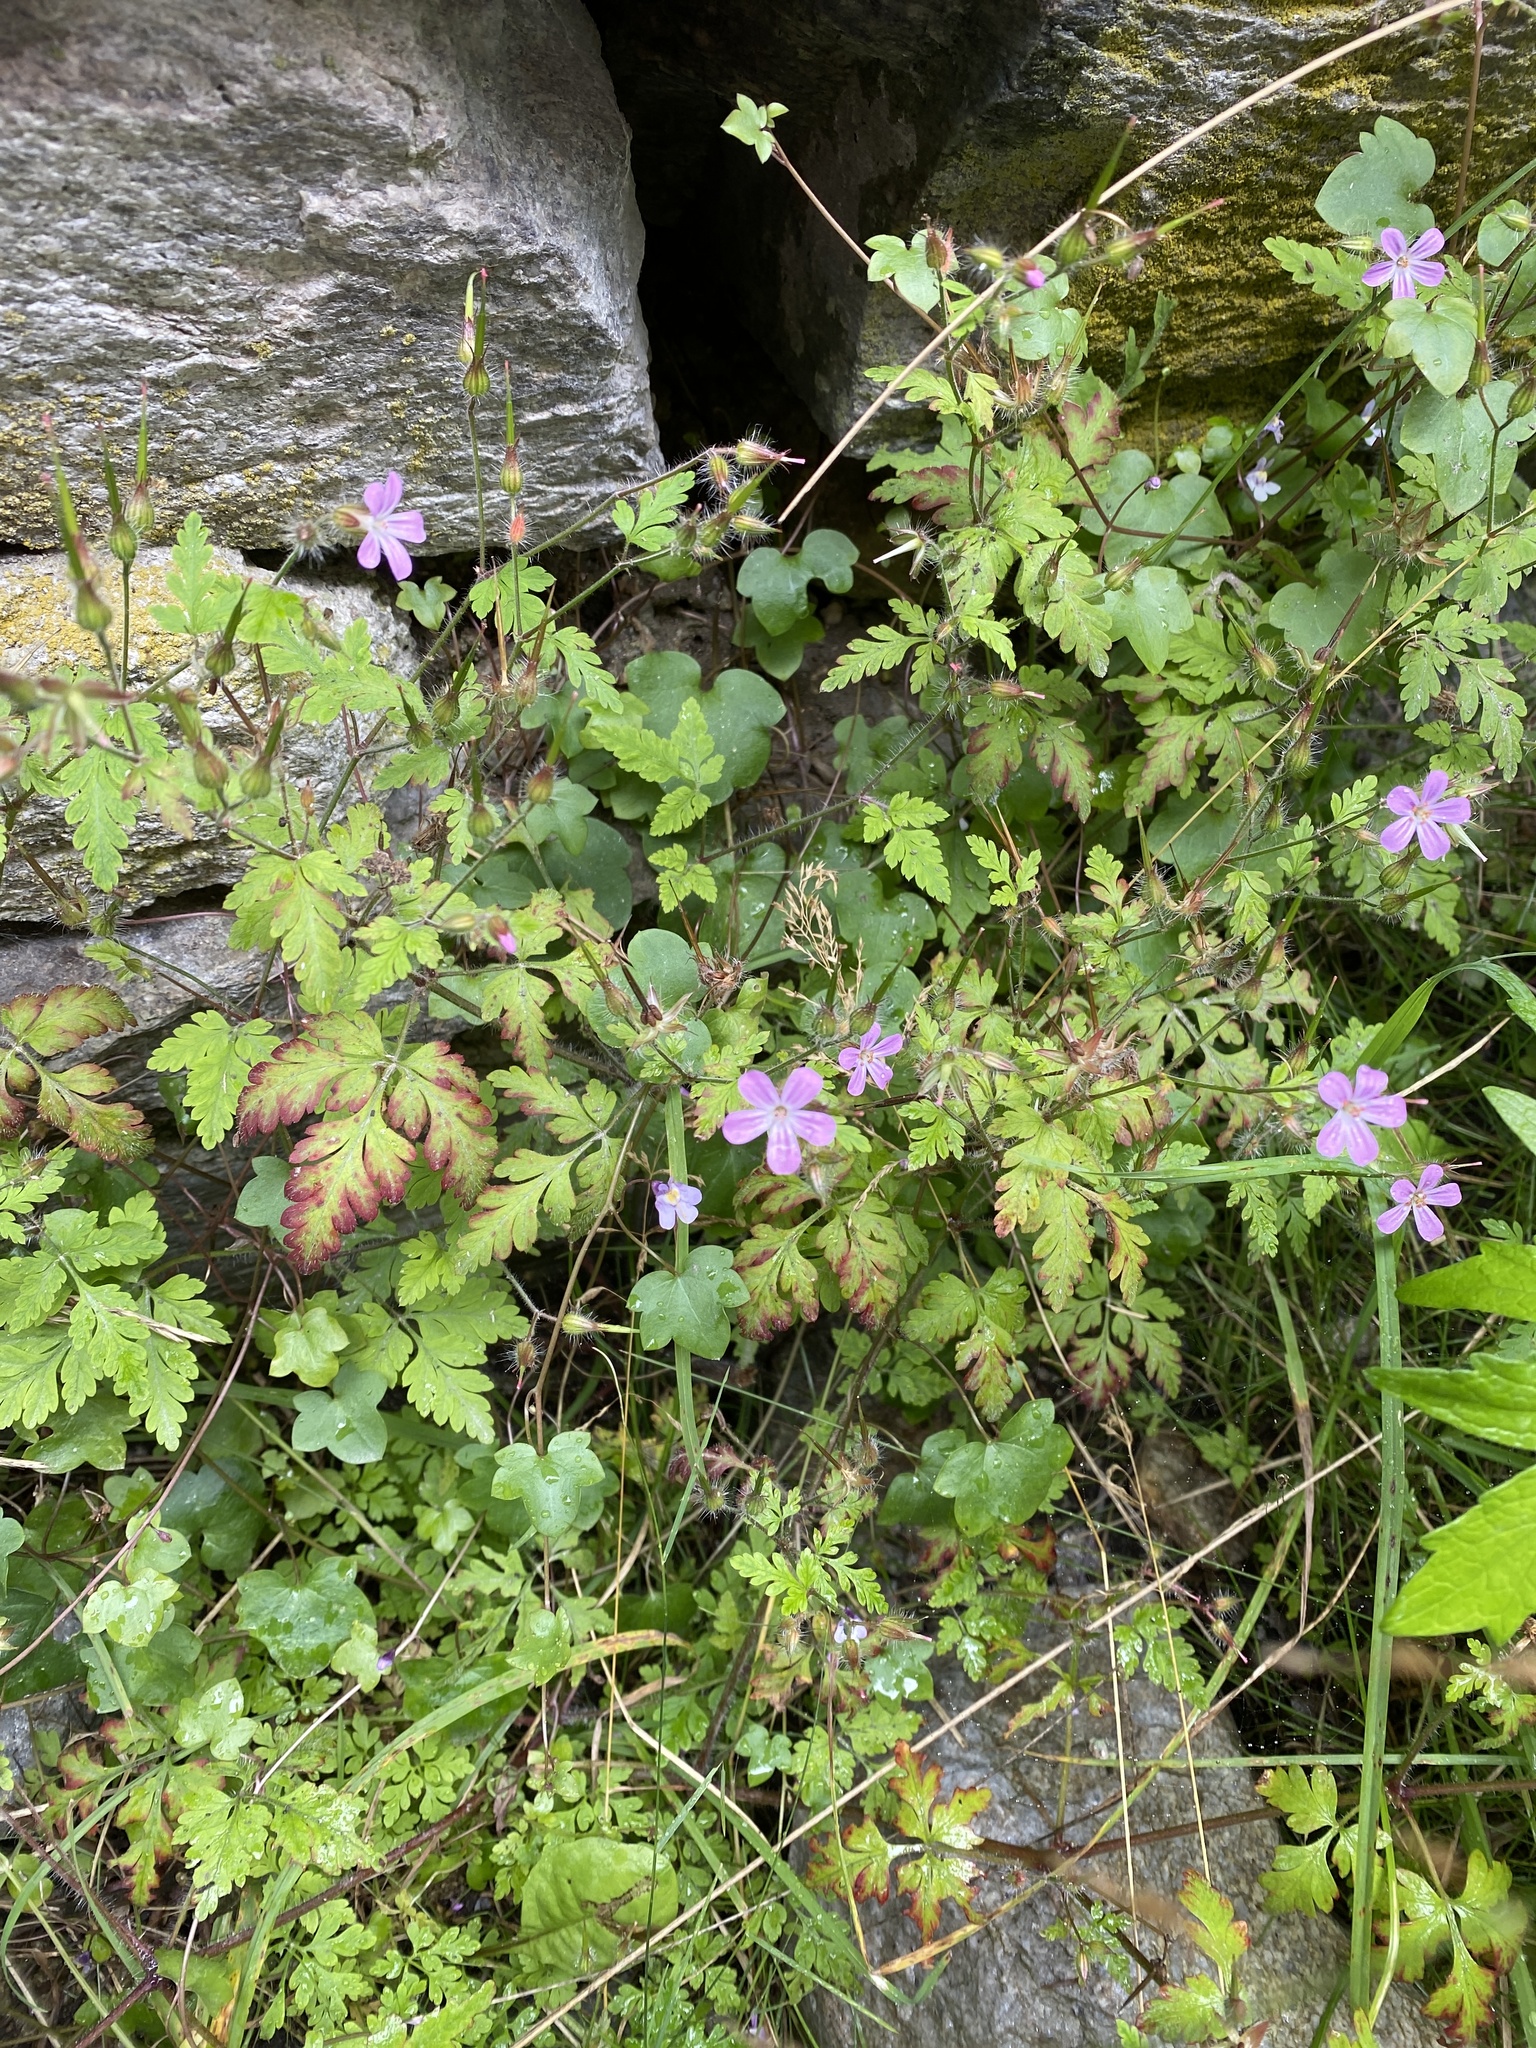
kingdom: Plantae
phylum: Tracheophyta
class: Magnoliopsida
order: Geraniales
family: Geraniaceae
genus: Geranium
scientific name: Geranium robertianum
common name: Herb-robert
